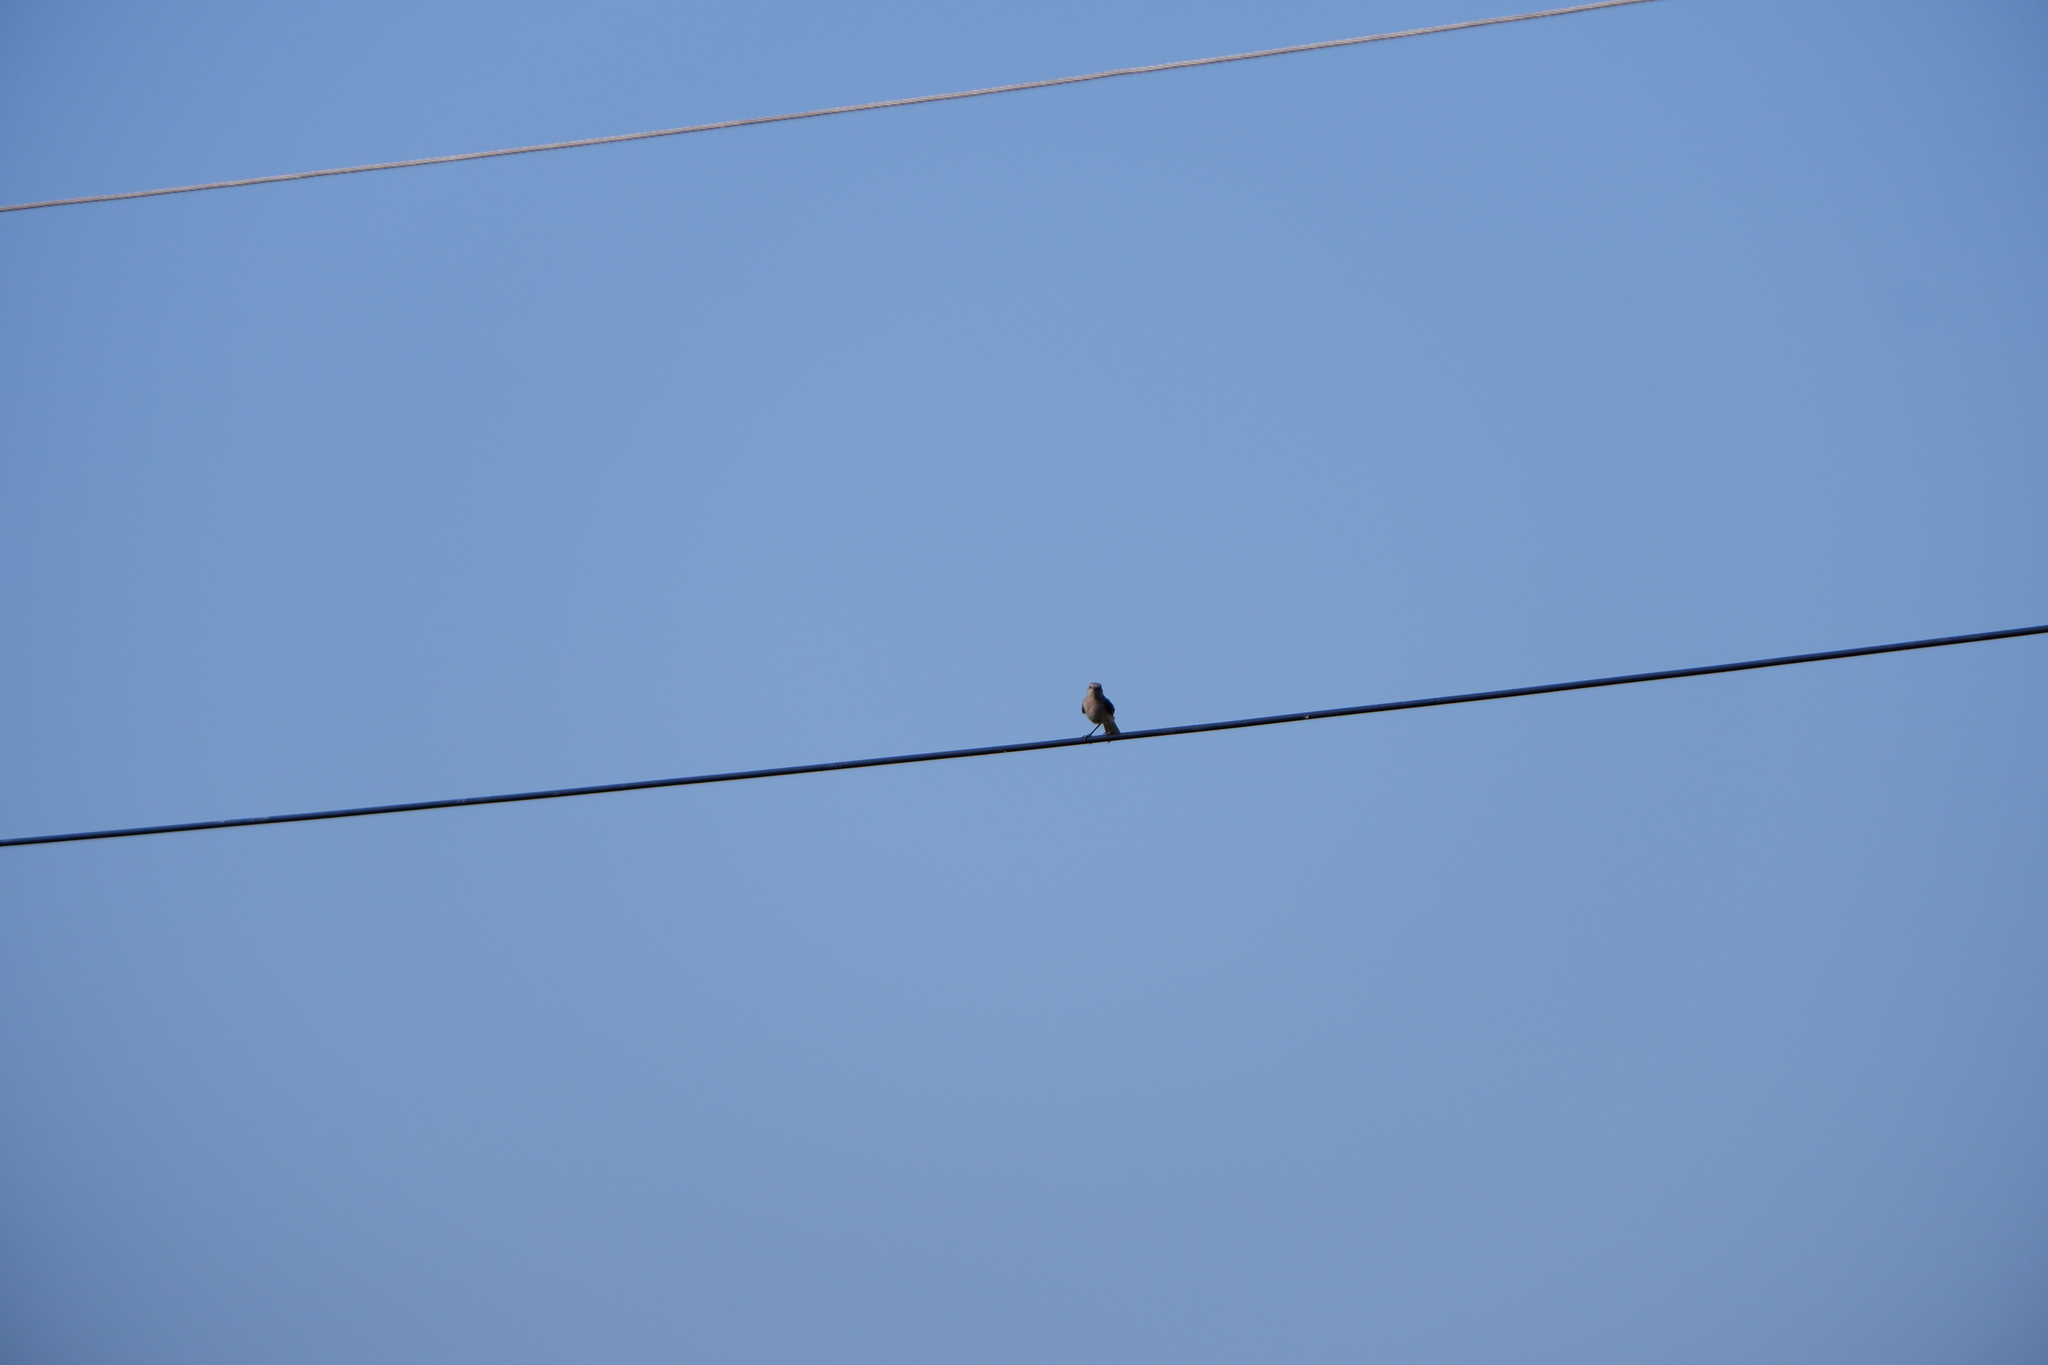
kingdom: Animalia
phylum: Chordata
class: Aves
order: Passeriformes
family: Mimidae
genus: Mimus
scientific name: Mimus polyglottos
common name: Northern mockingbird
